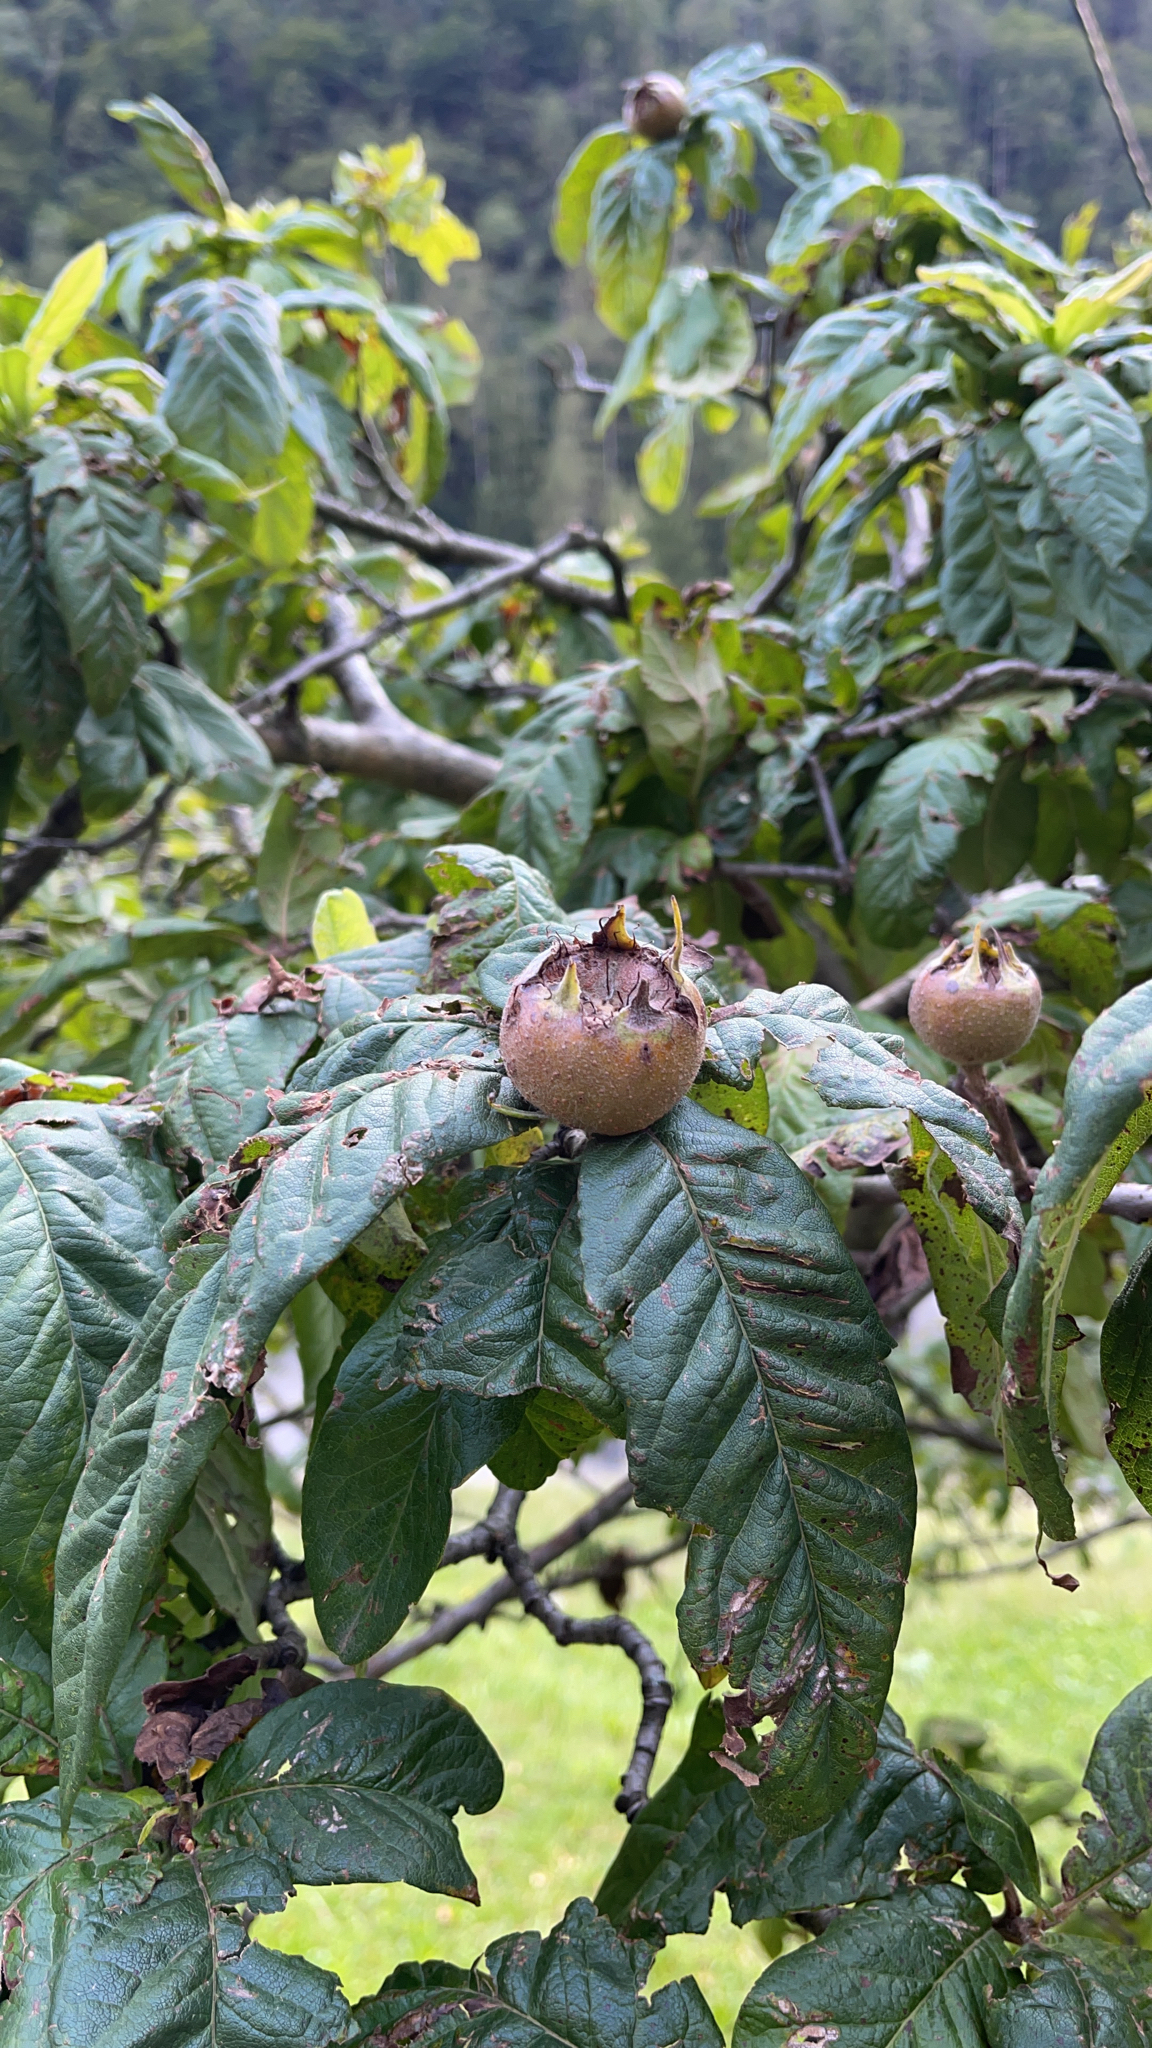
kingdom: Plantae
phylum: Tracheophyta
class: Magnoliopsida
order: Rosales
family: Rosaceae
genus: Mespilus
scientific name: Mespilus germanica
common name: Medlar
